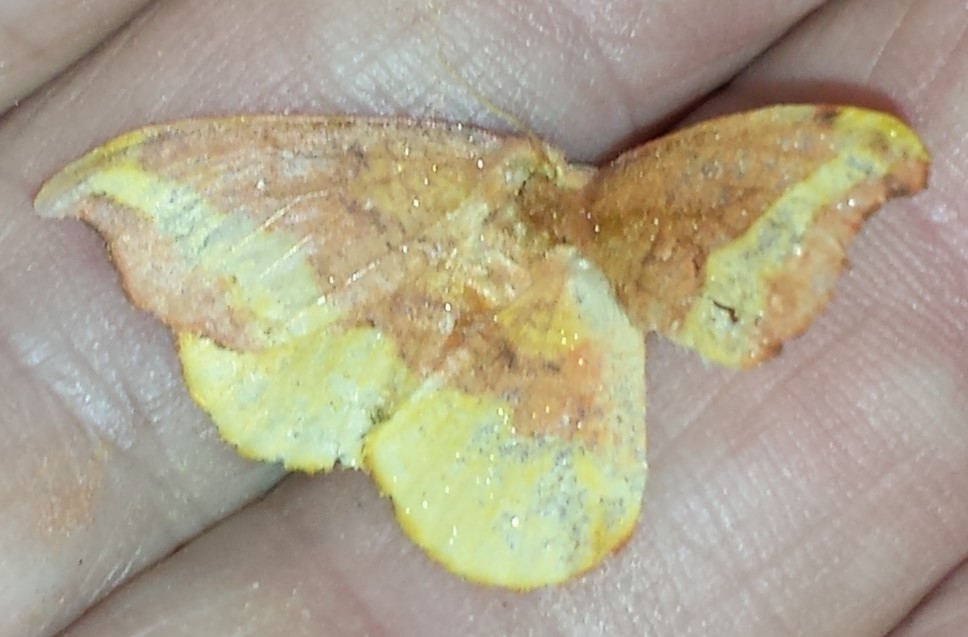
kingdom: Animalia
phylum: Arthropoda
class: Insecta
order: Lepidoptera
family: Drepanidae
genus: Oreta
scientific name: Oreta rosea
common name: Rose hooktip
